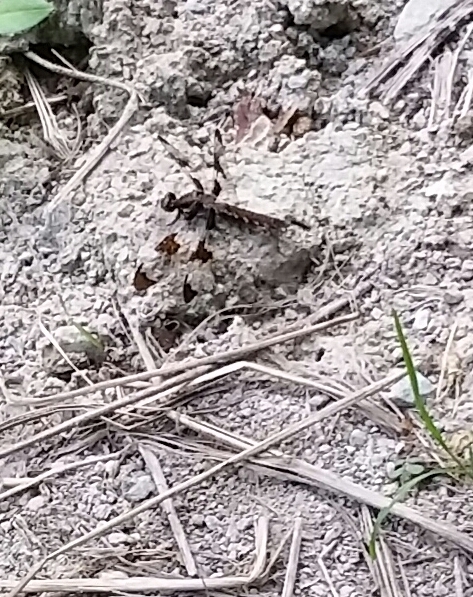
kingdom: Animalia
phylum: Arthropoda
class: Insecta
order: Odonata
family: Libellulidae
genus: Plathemis
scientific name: Plathemis lydia
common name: Common whitetail
